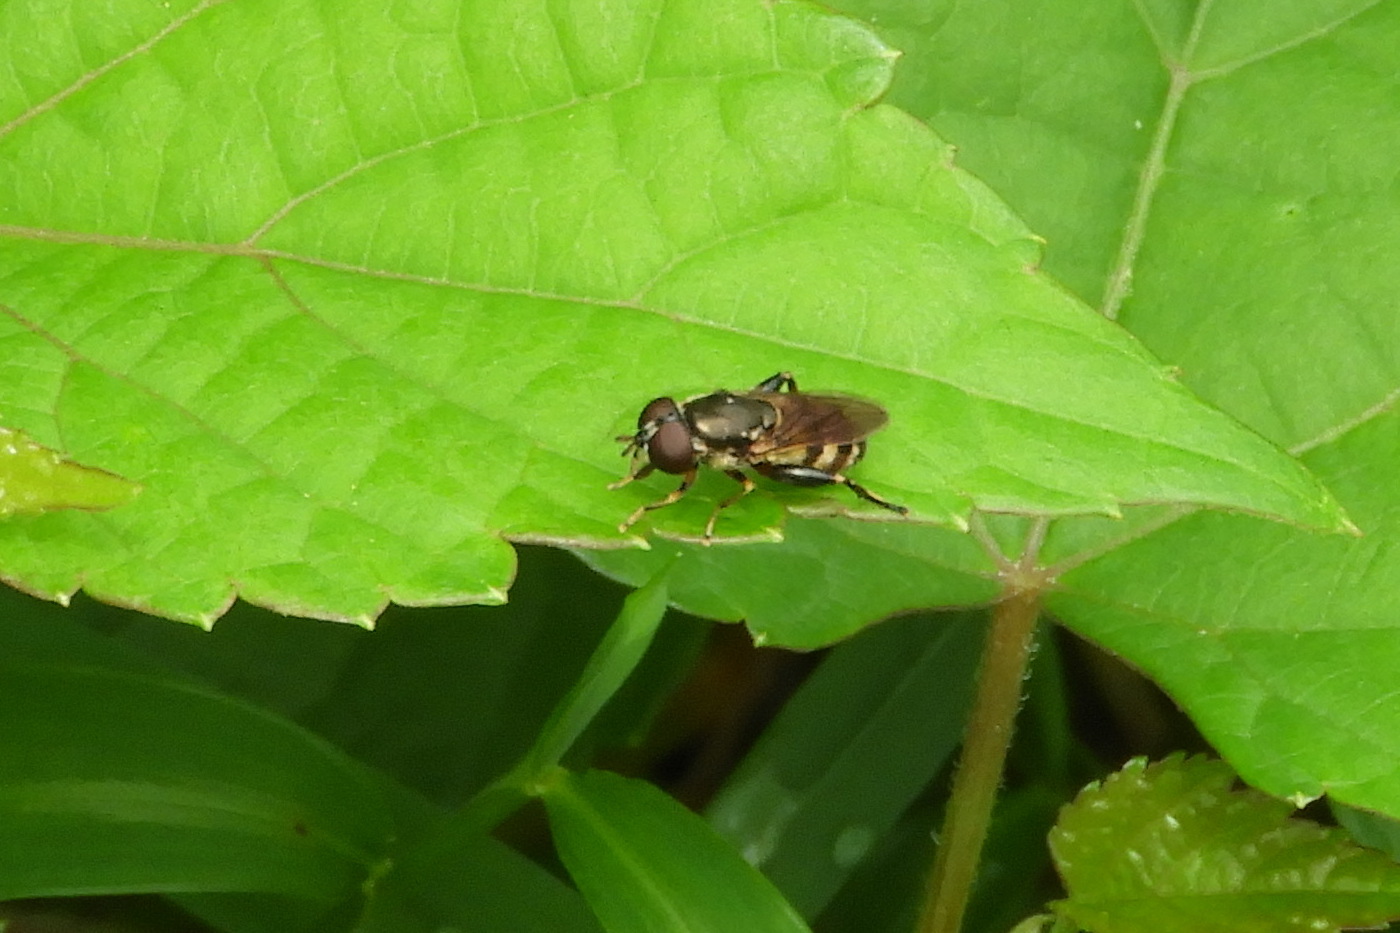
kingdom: Animalia
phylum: Arthropoda
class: Insecta
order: Diptera
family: Syrphidae
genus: Tropidia
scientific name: Tropidia albistylum
